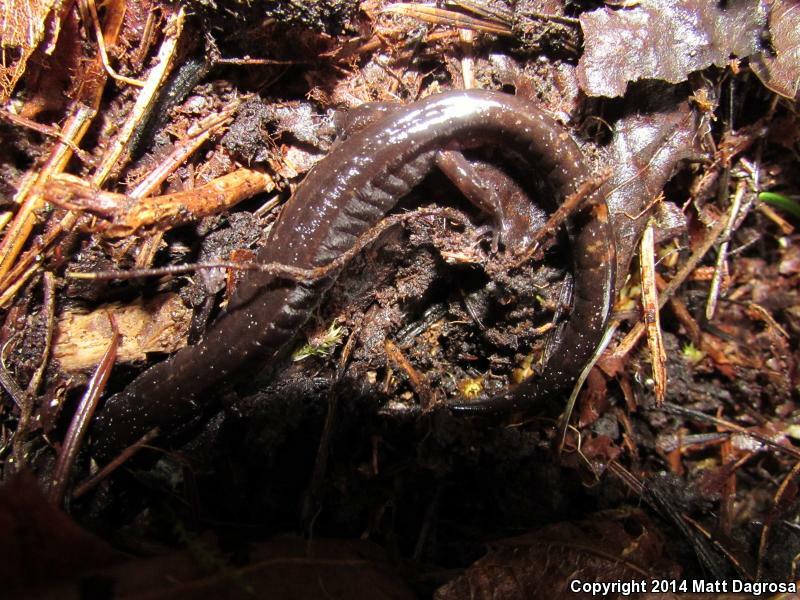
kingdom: Animalia
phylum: Chordata
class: Amphibia
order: Caudata
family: Plethodontidae
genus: Plethodon
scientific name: Plethodon vehiculum
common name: Western red-backed salamander
